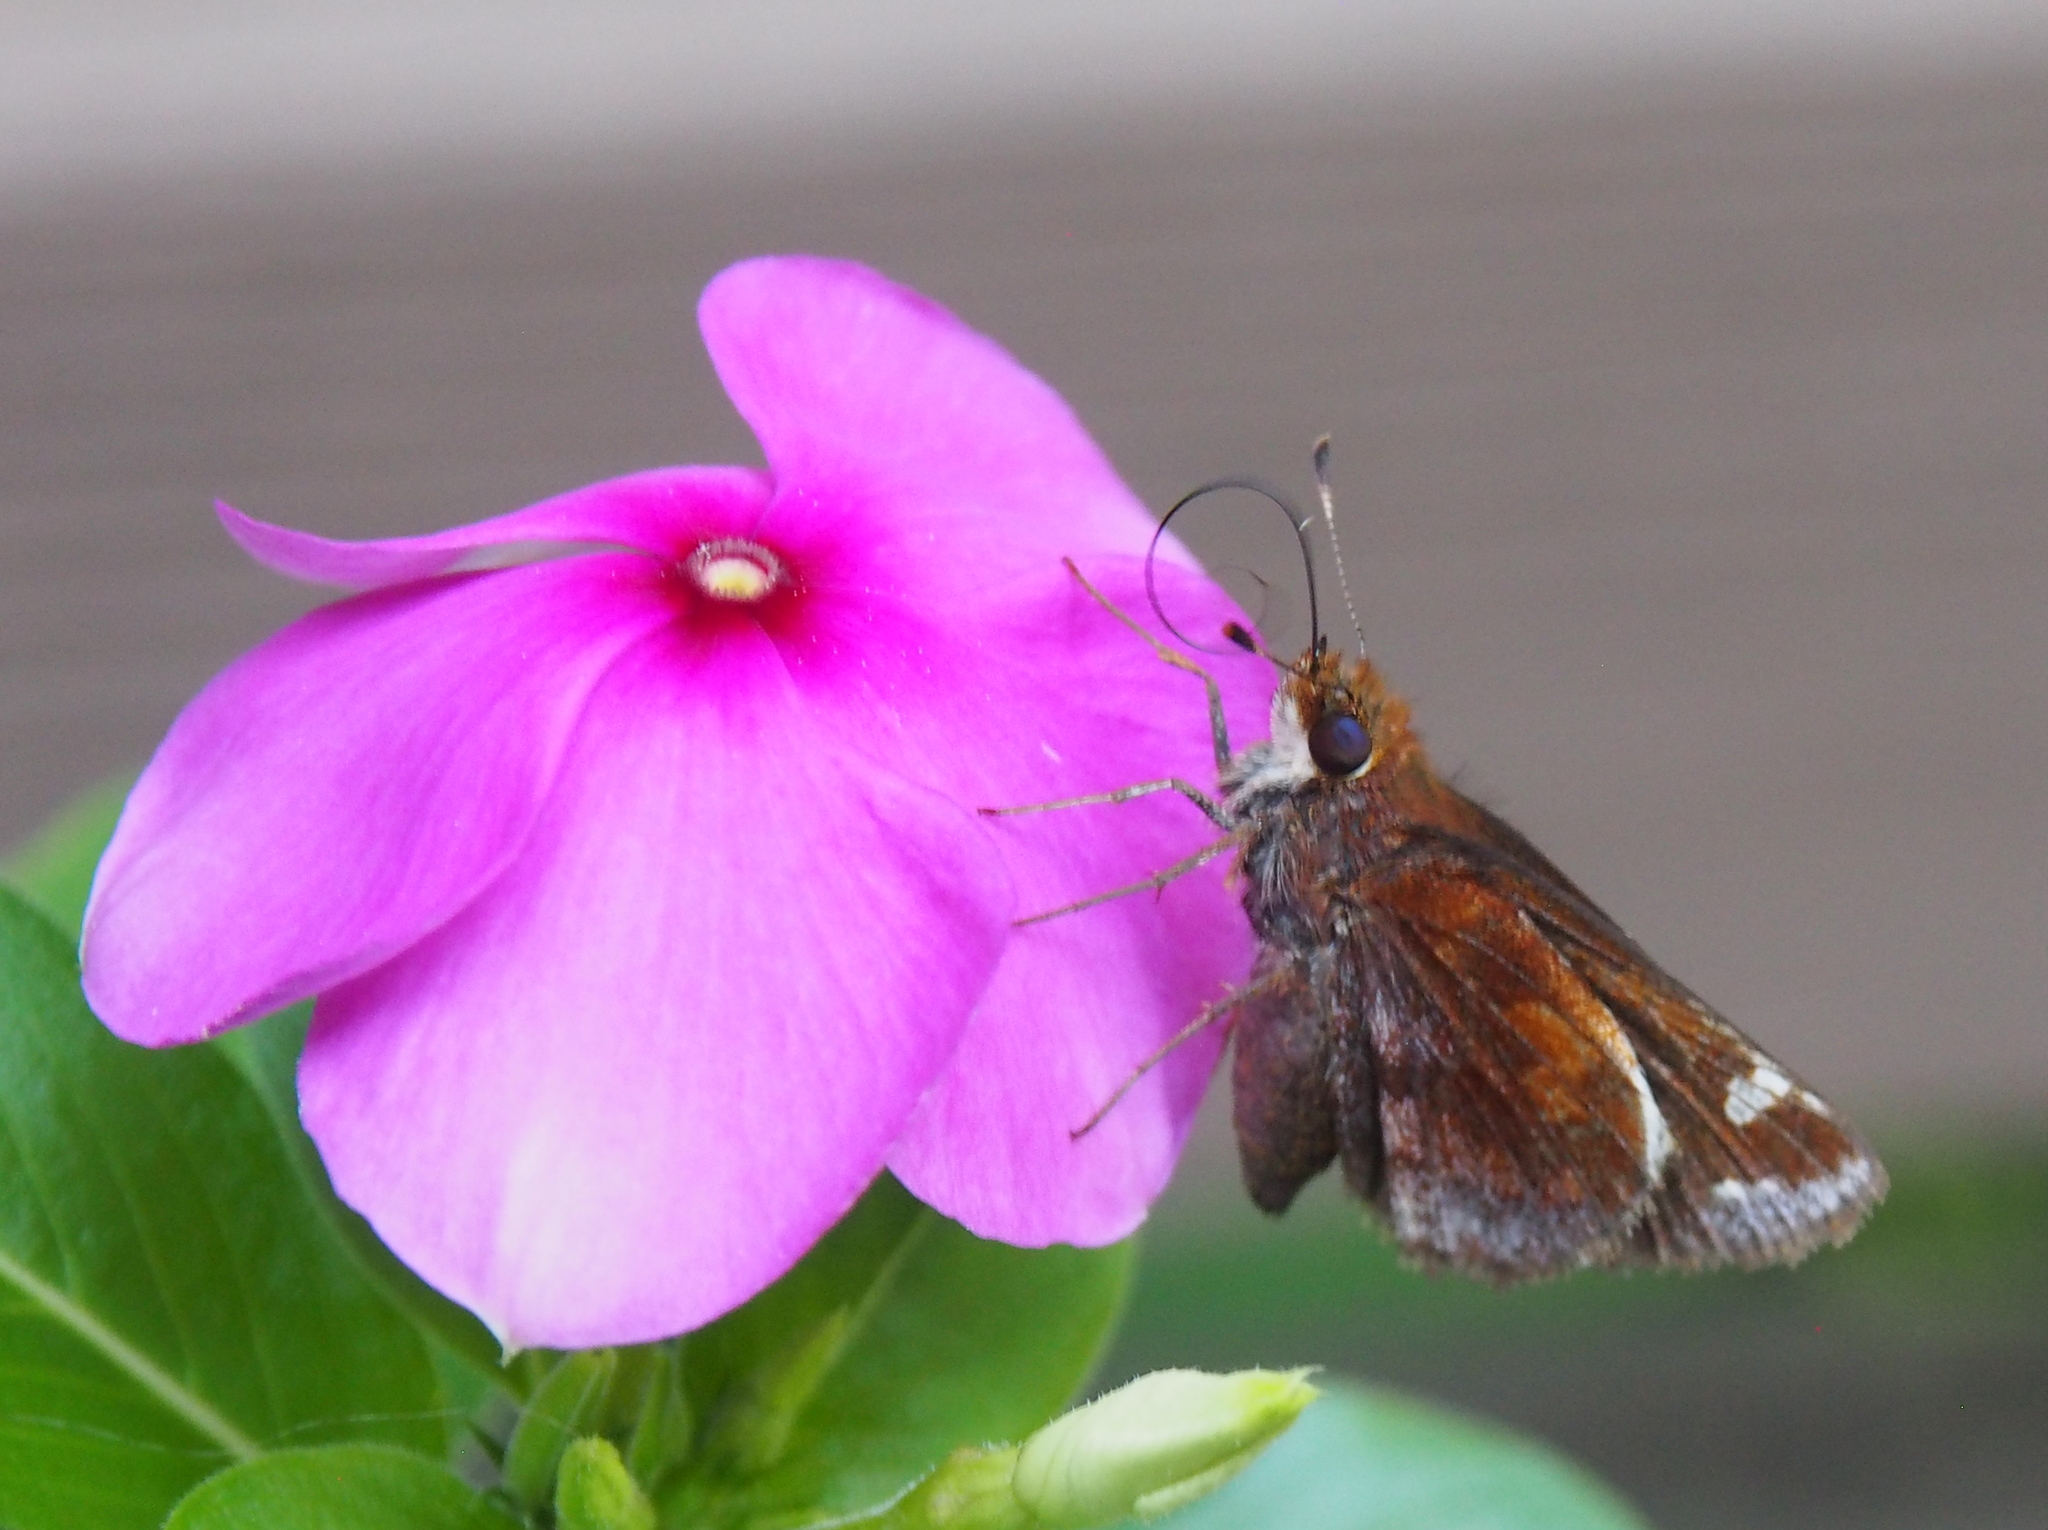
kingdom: Animalia
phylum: Arthropoda
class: Insecta
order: Lepidoptera
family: Hesperiidae
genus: Lon
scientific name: Lon zabulon
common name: Zabulon skipper
